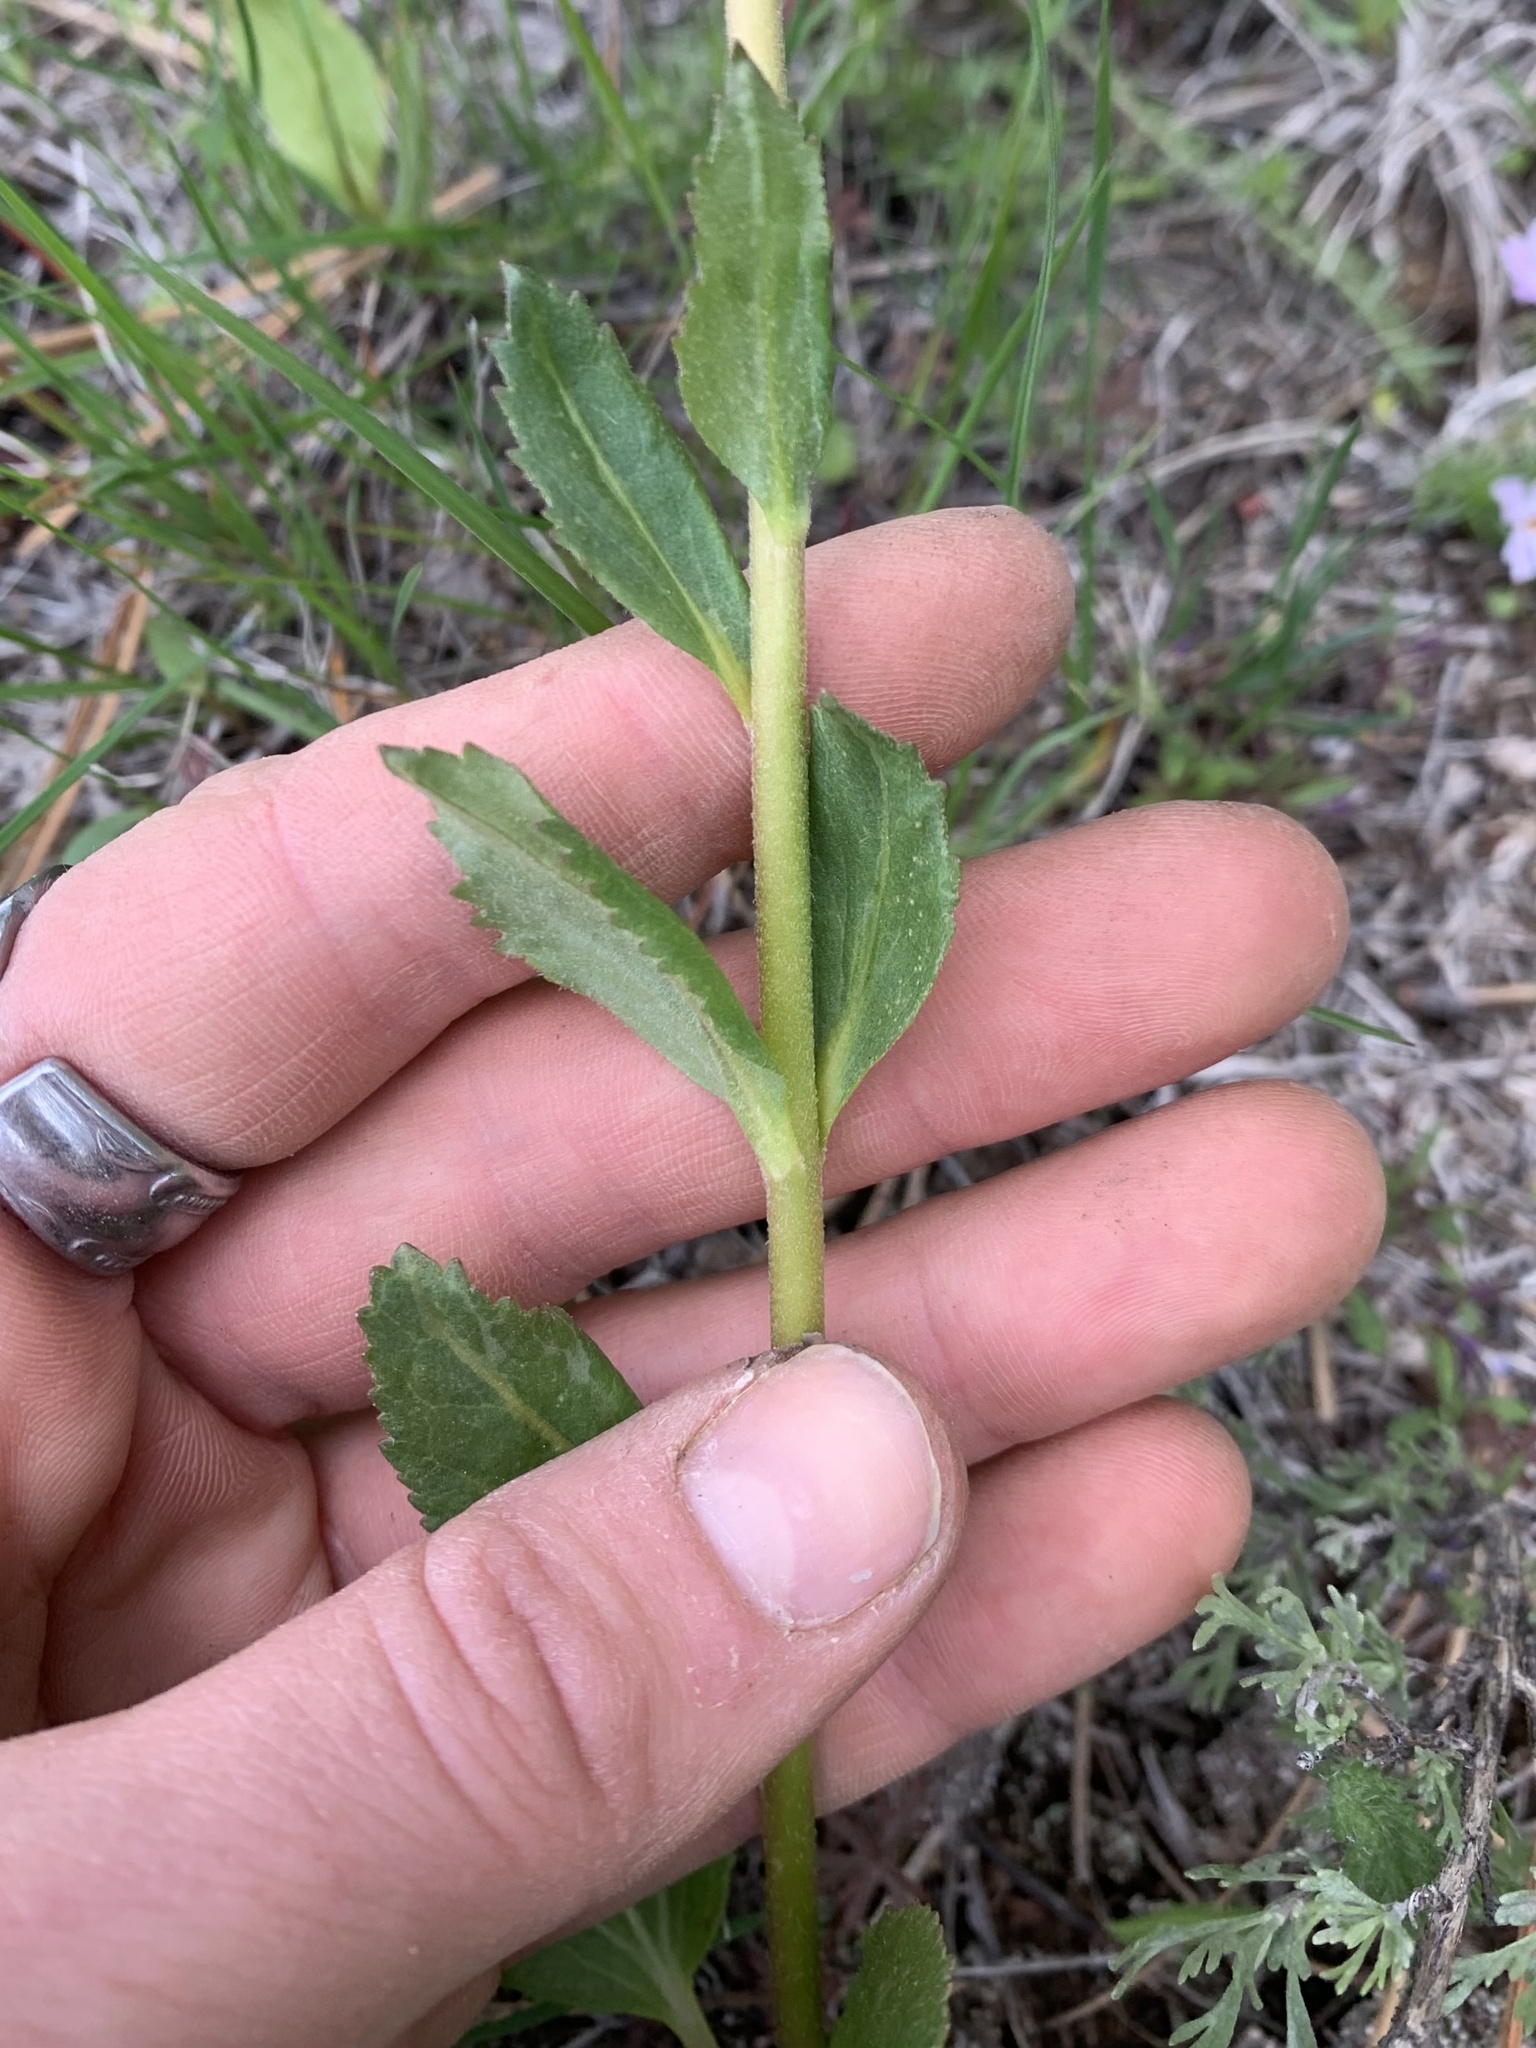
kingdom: Plantae
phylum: Tracheophyta
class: Magnoliopsida
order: Lamiales
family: Plantaginaceae
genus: Synthyris
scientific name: Synthyris rubra
